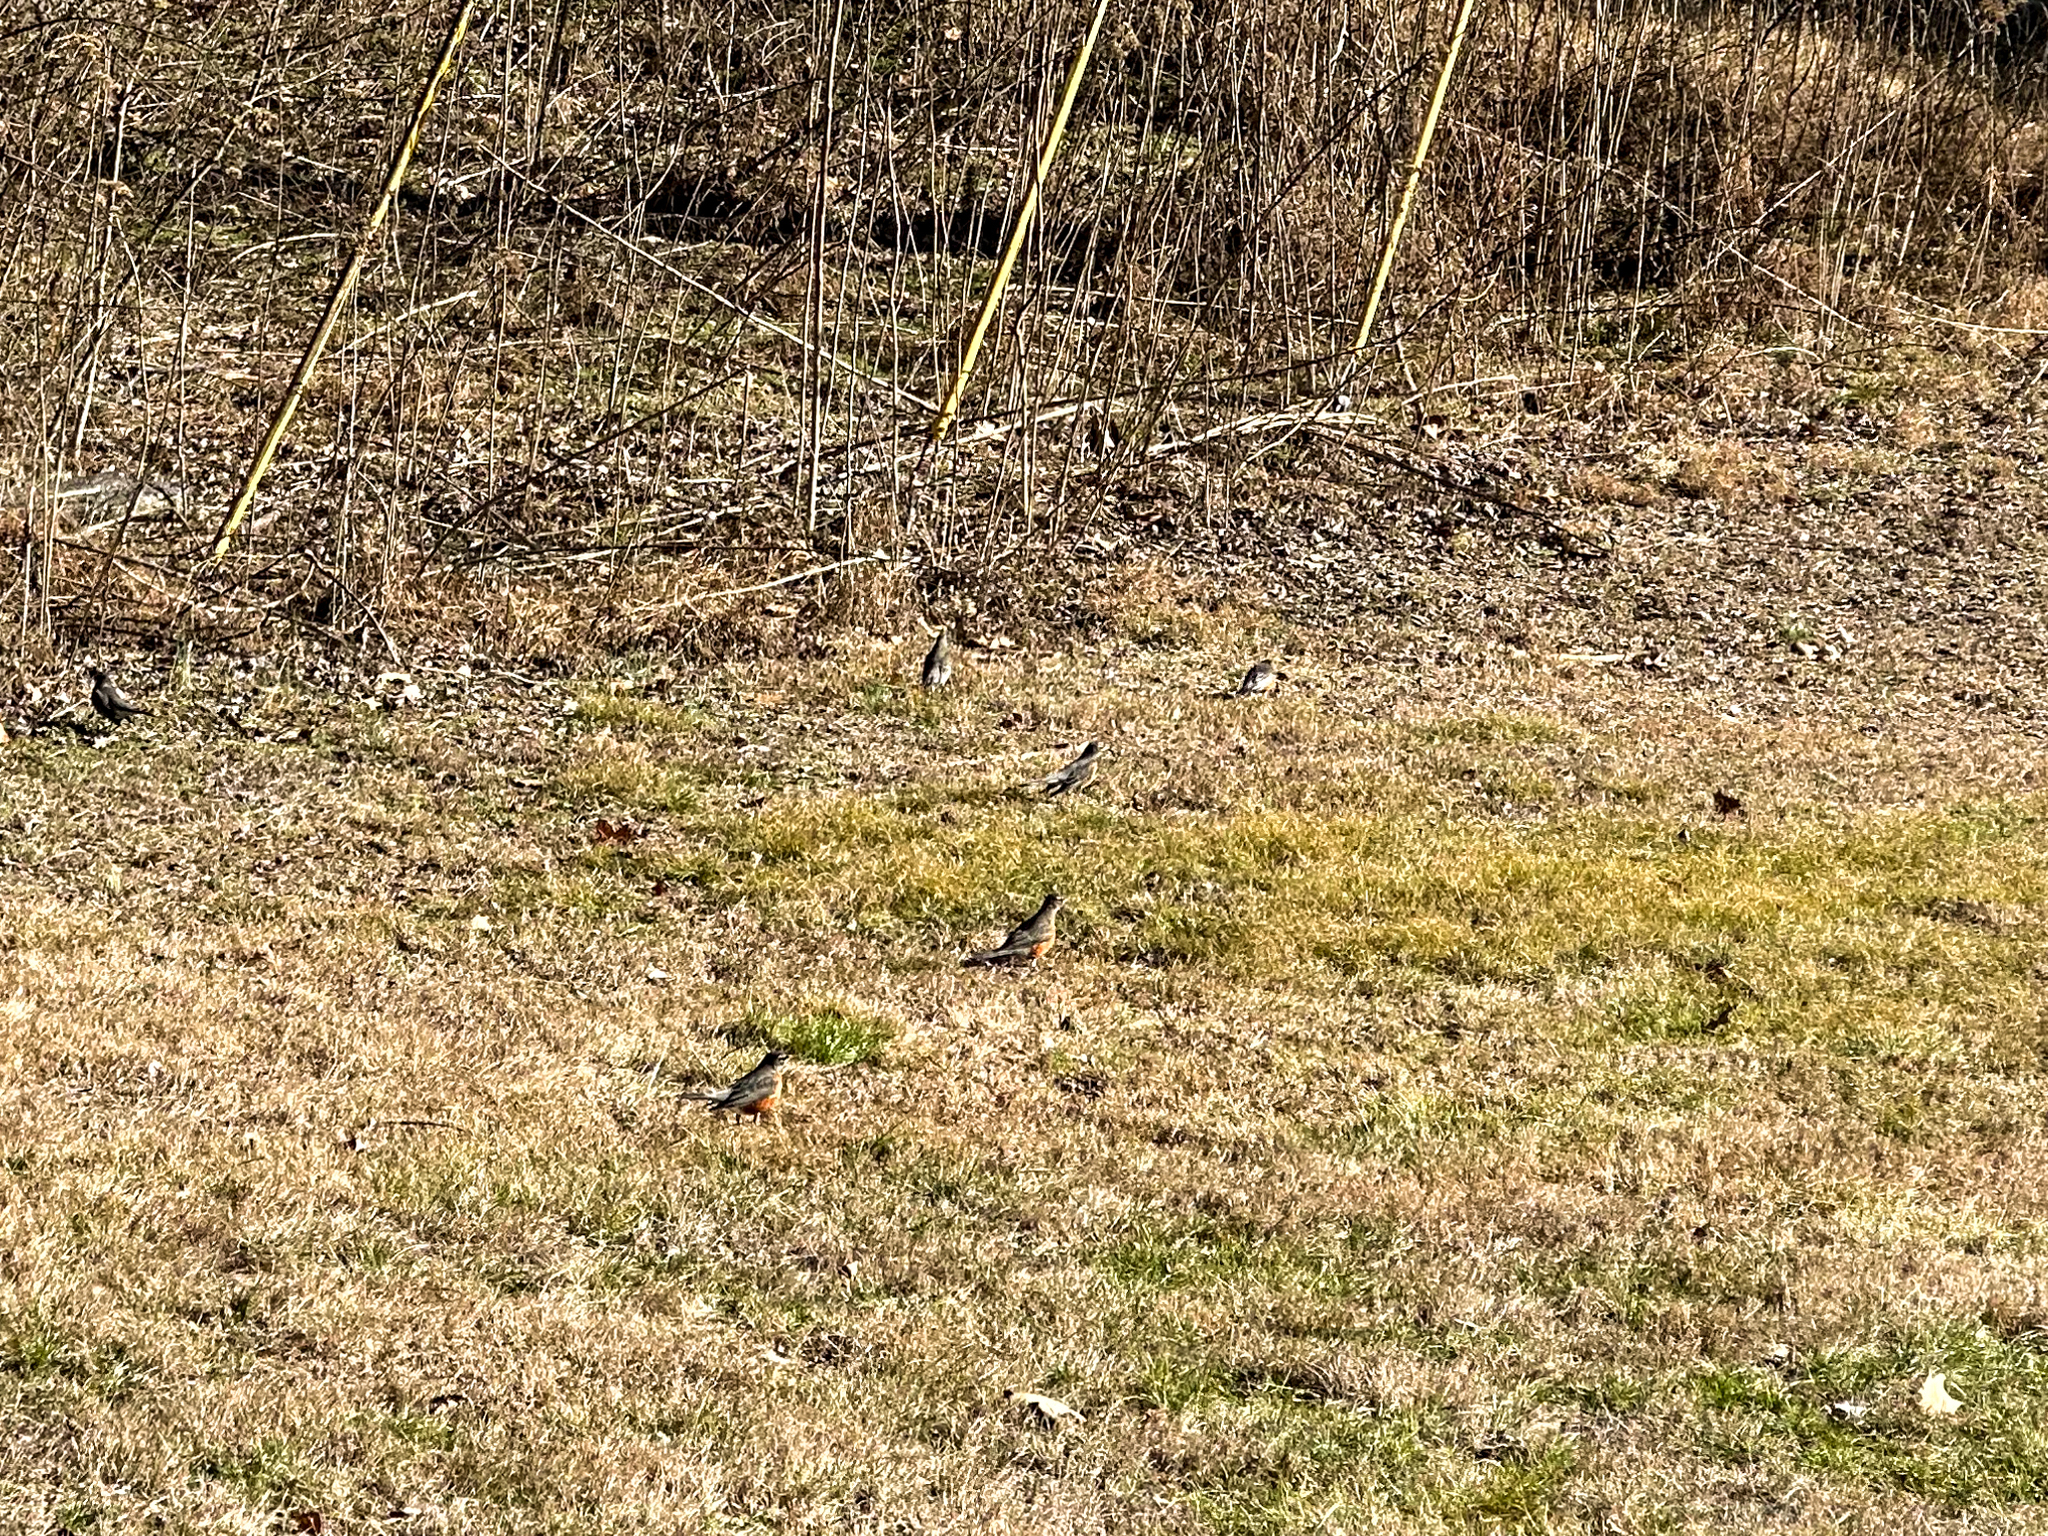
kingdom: Animalia
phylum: Chordata
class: Aves
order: Passeriformes
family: Turdidae
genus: Turdus
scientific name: Turdus migratorius
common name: American robin
